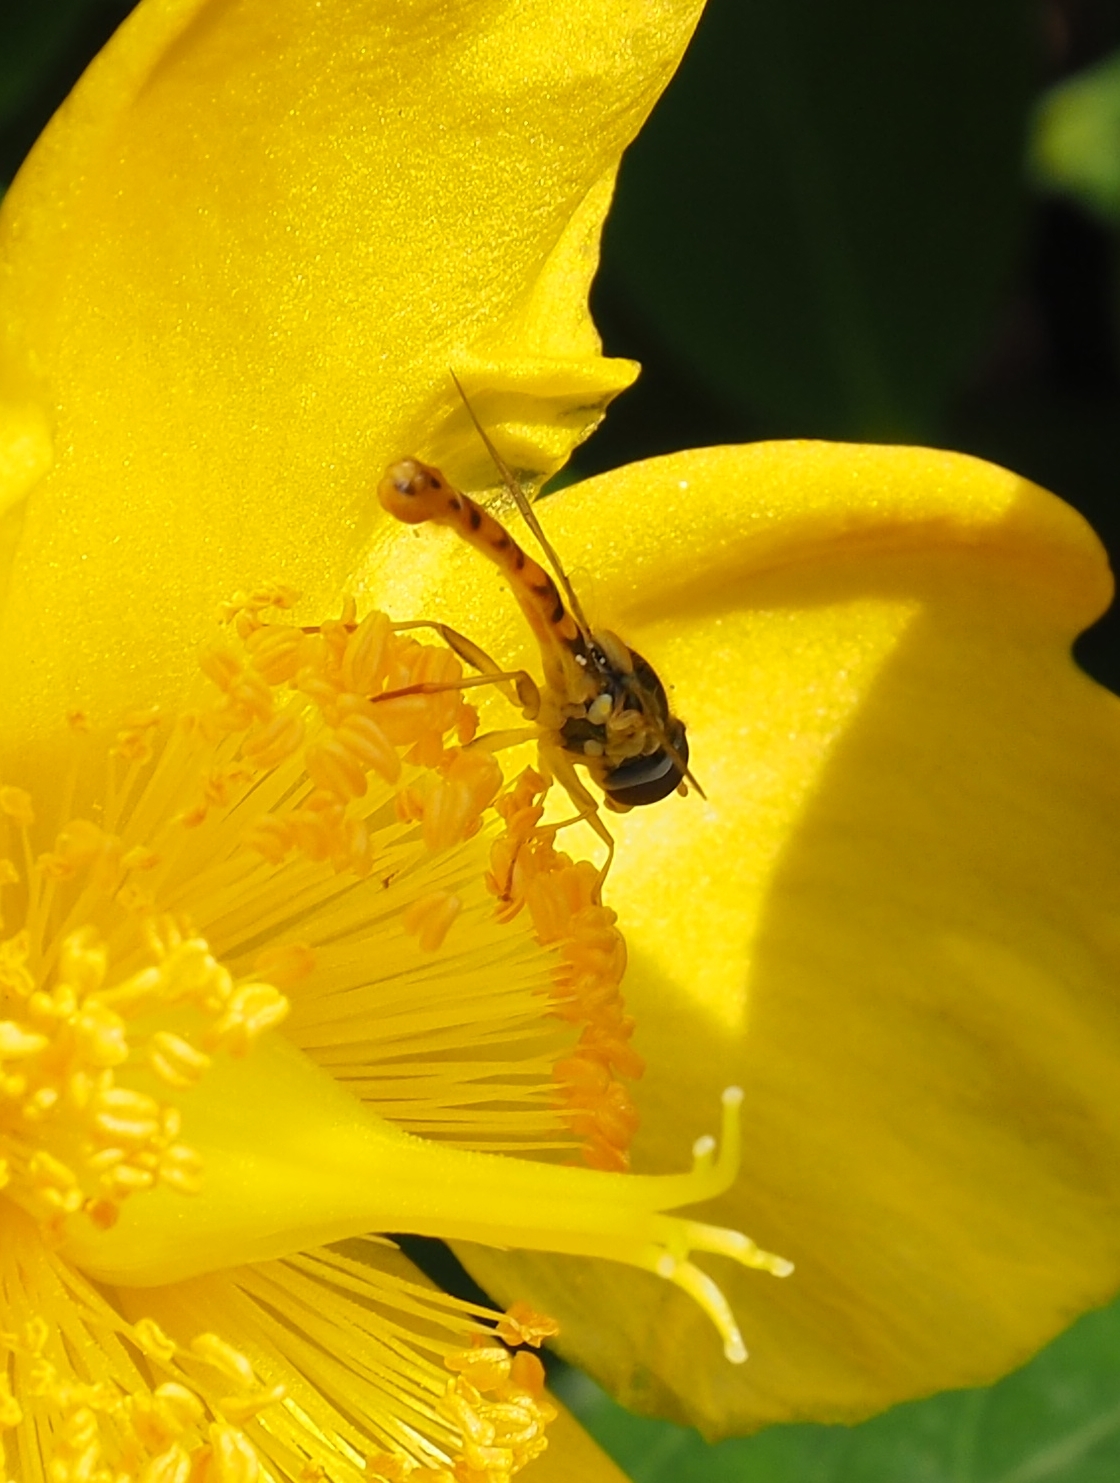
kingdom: Animalia
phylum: Arthropoda
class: Insecta
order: Diptera
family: Syrphidae
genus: Sphaerophoria
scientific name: Sphaerophoria
